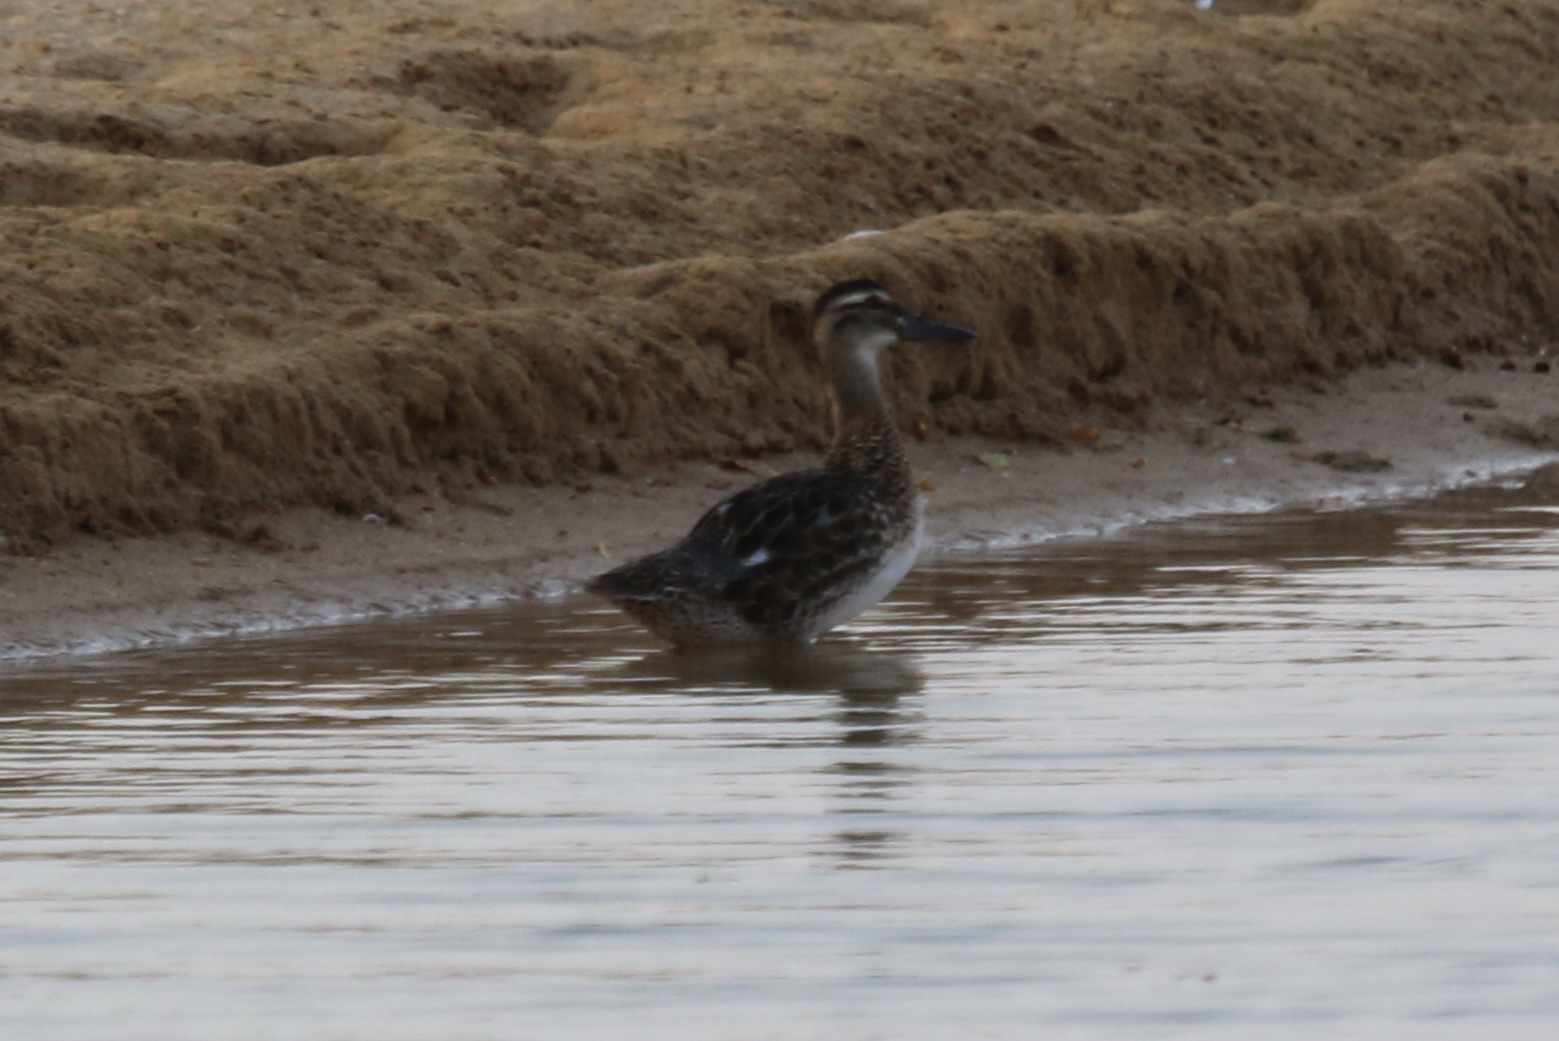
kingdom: Animalia
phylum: Chordata
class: Aves
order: Anseriformes
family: Anatidae
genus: Spatula
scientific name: Spatula querquedula
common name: Garganey
